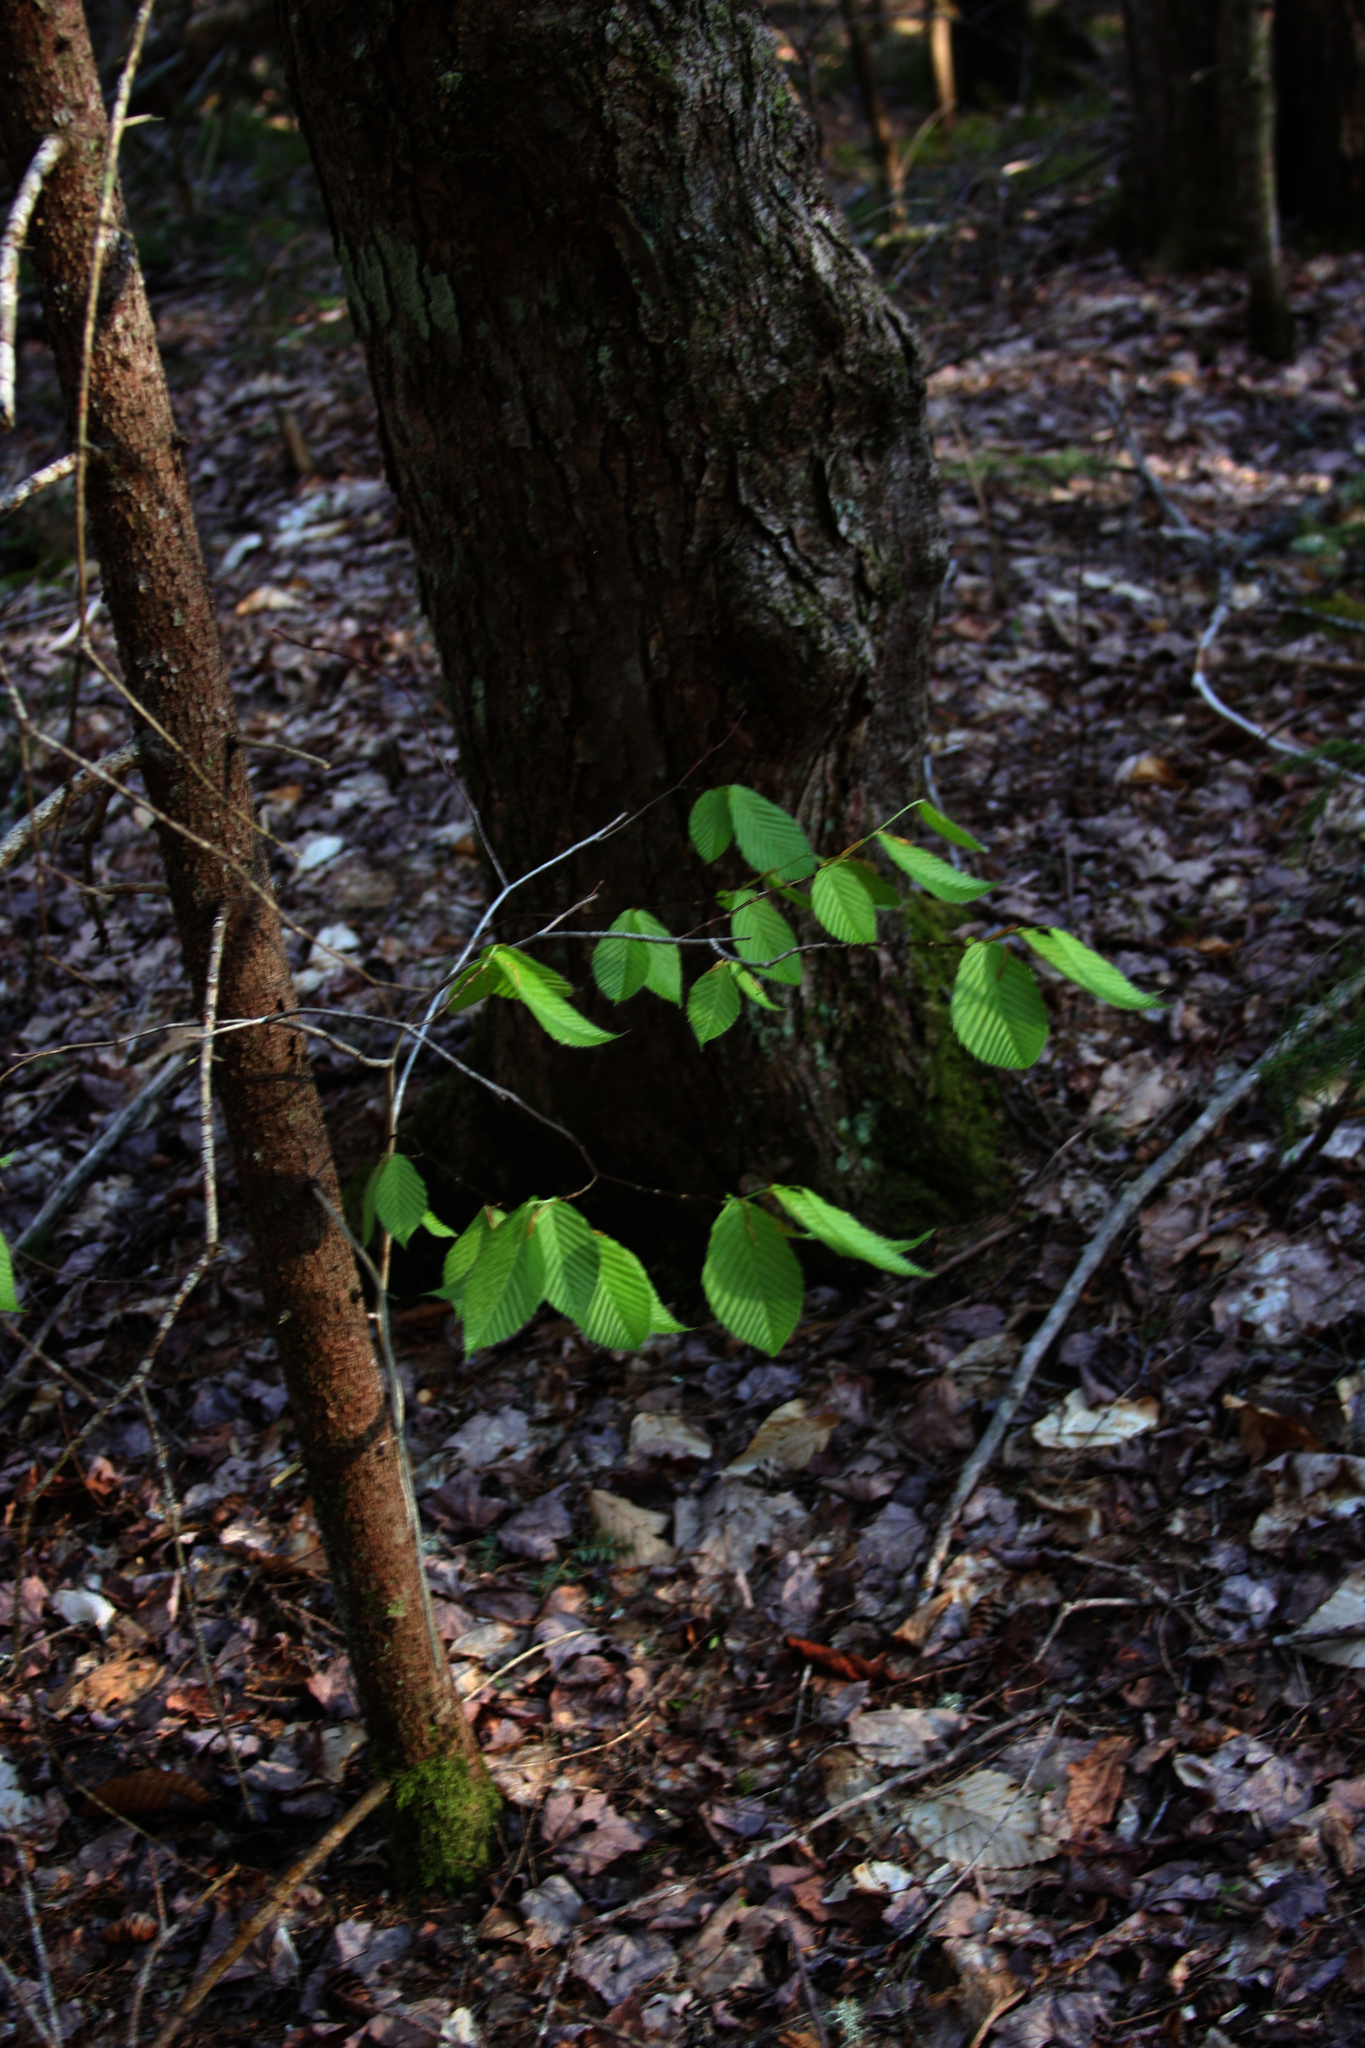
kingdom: Plantae
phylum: Tracheophyta
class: Magnoliopsida
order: Fagales
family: Fagaceae
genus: Fagus
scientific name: Fagus grandifolia
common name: American beech
